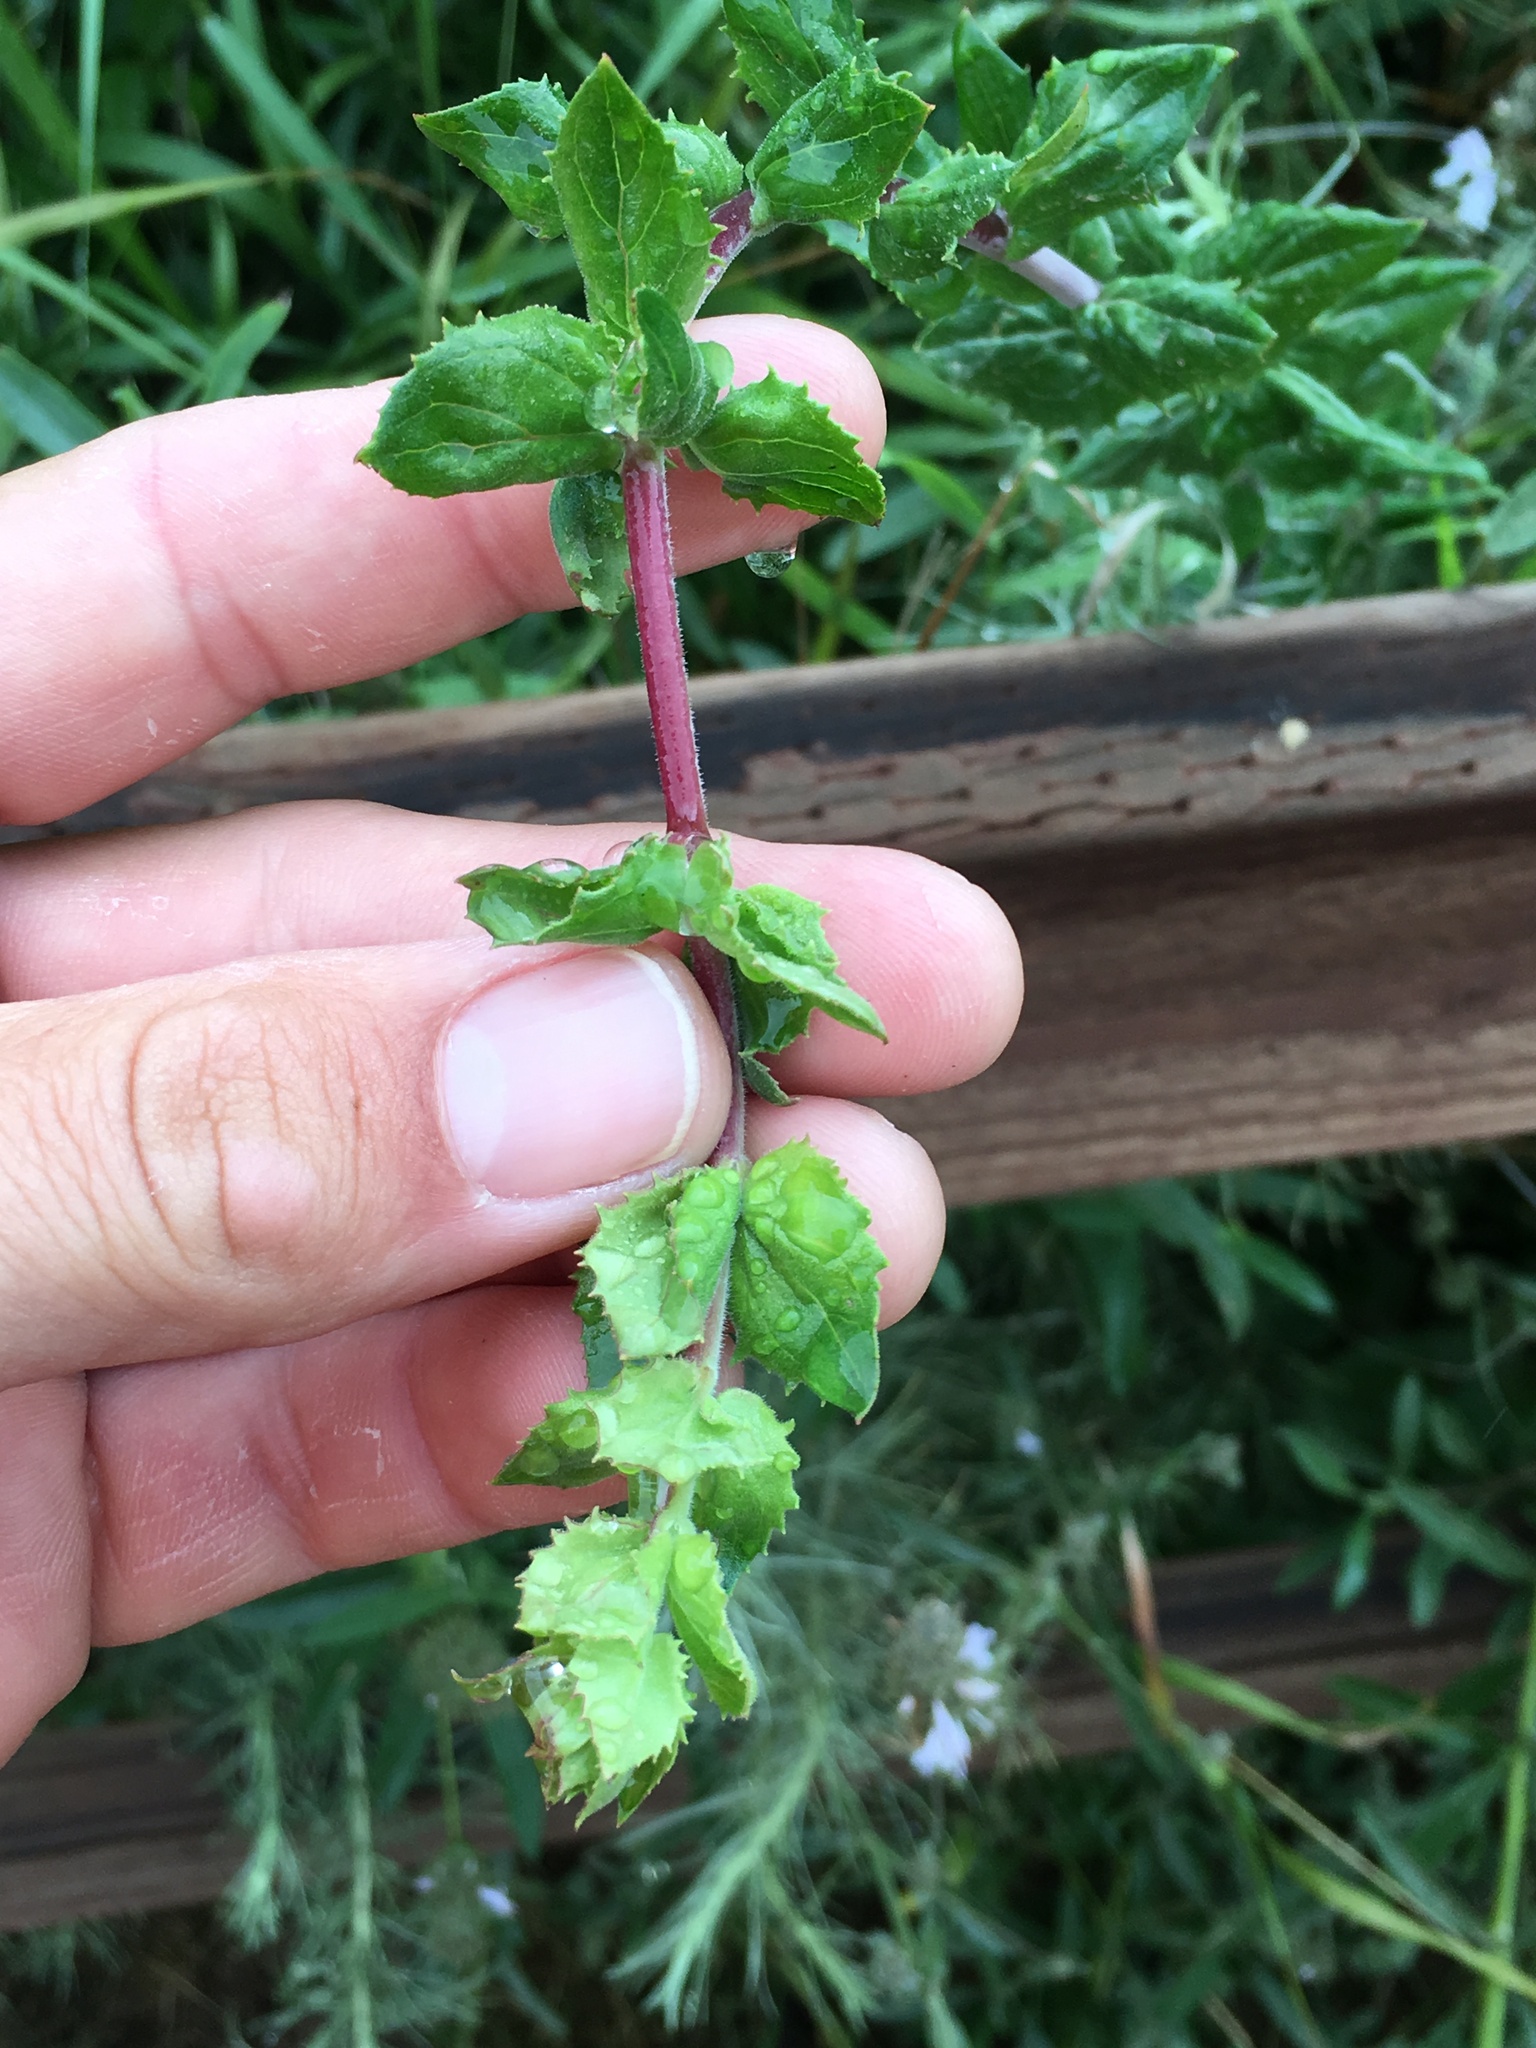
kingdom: Plantae
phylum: Tracheophyta
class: Magnoliopsida
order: Lamiales
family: Plantaginaceae
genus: Keckiella
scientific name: Keckiella cordifolia
